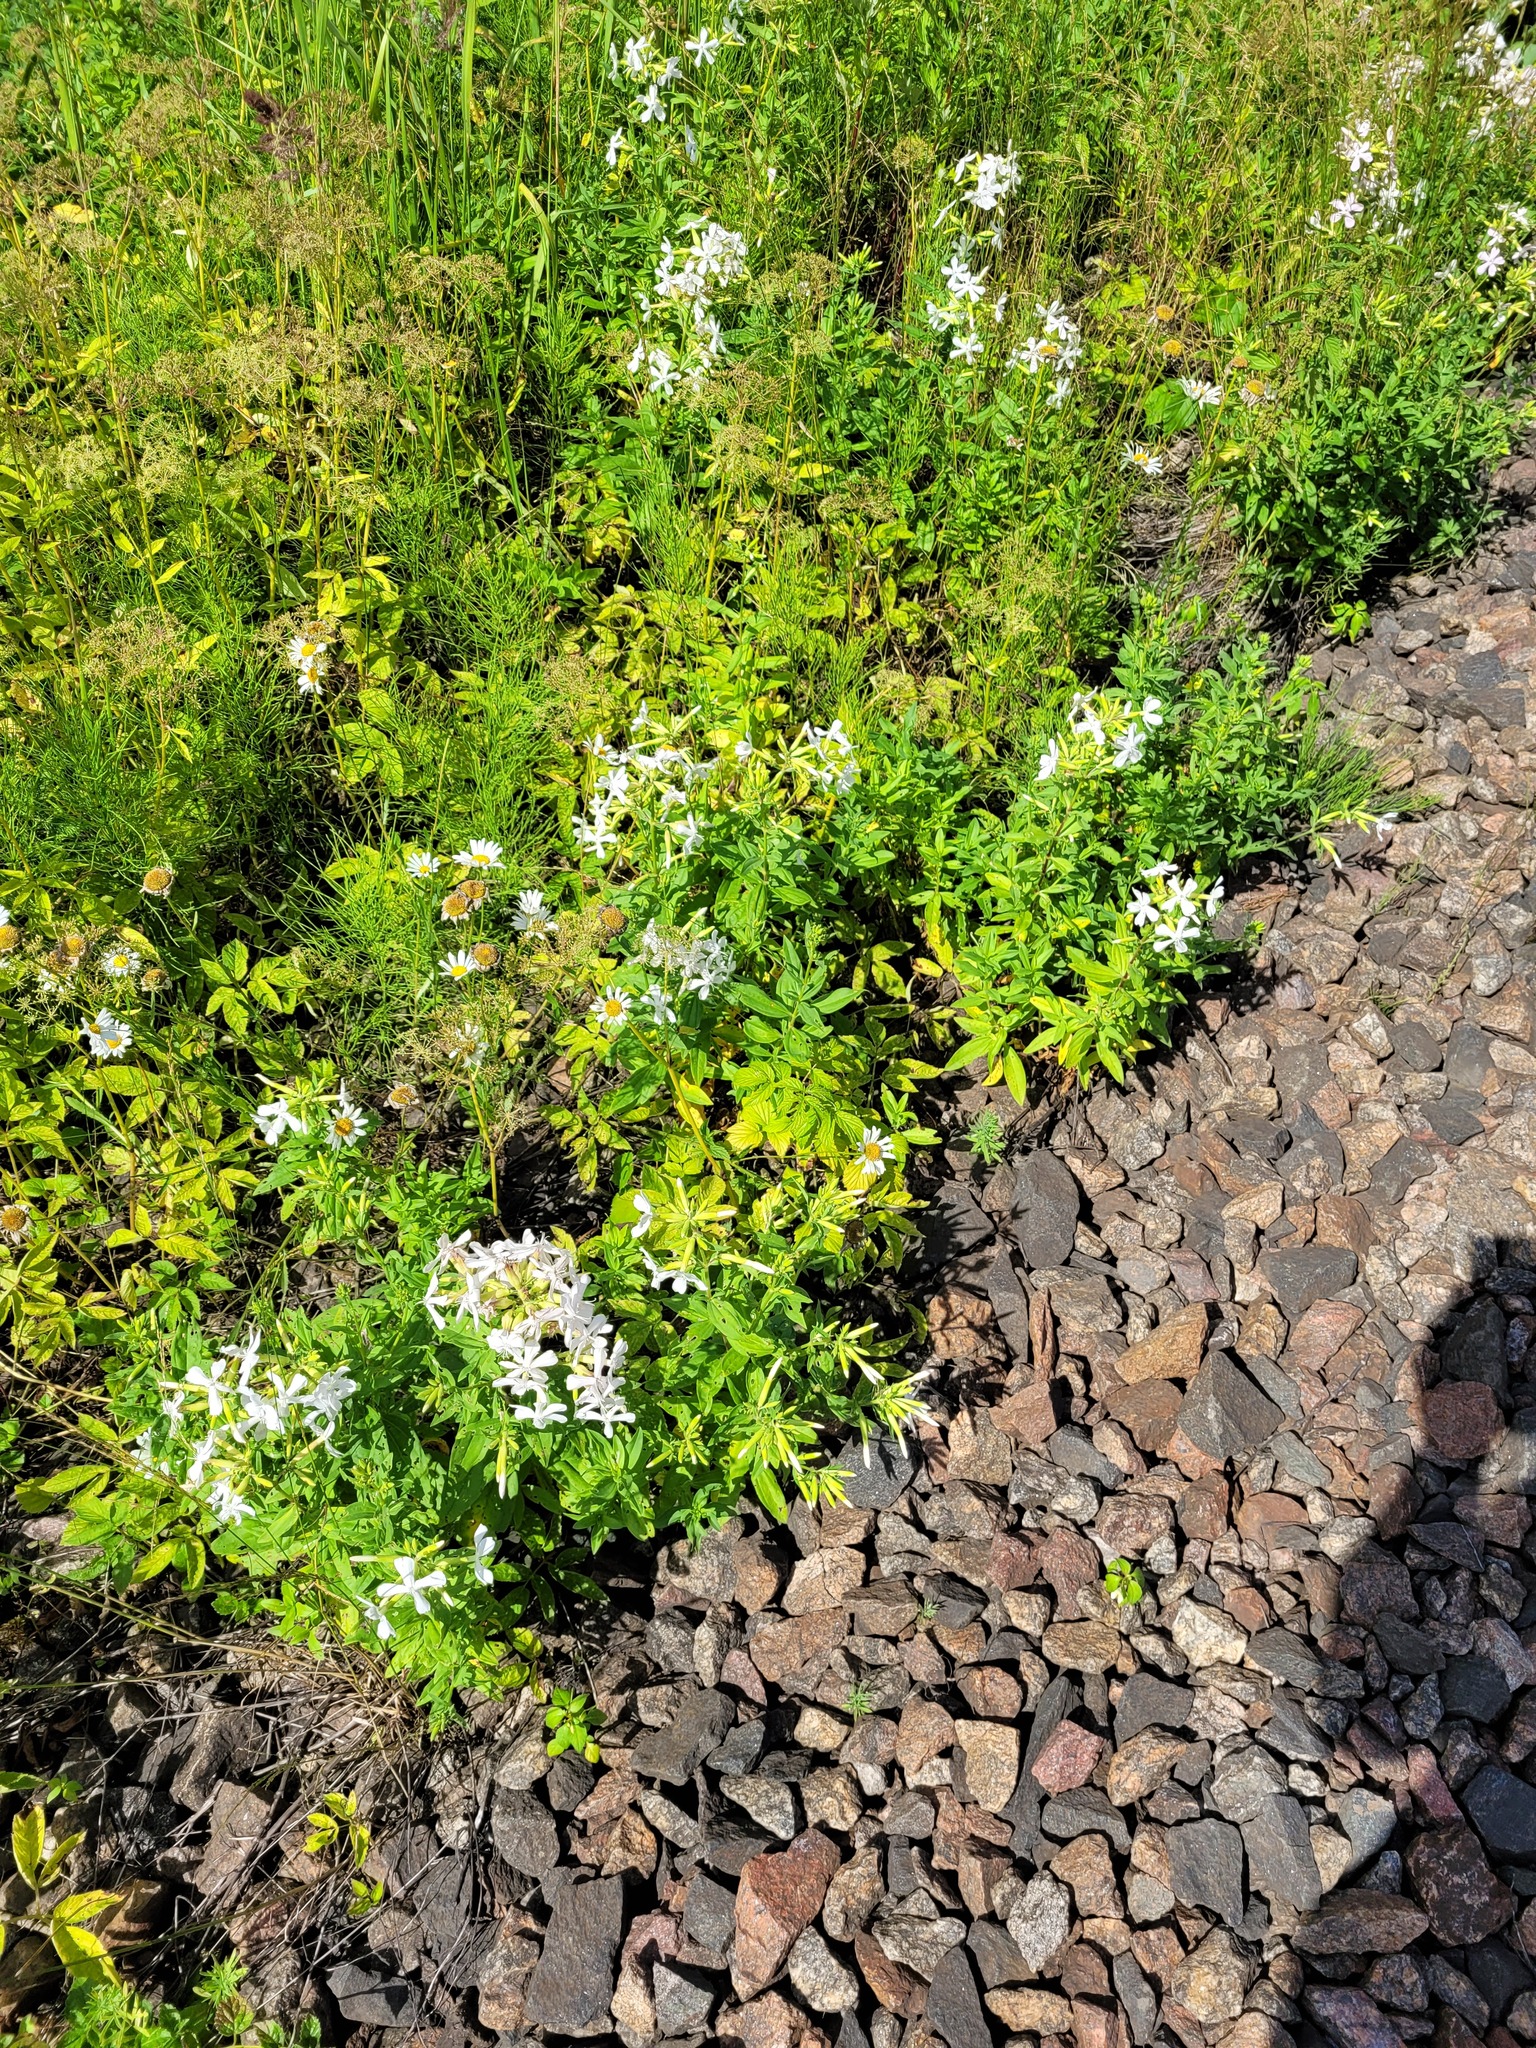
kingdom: Plantae
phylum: Tracheophyta
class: Magnoliopsida
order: Caryophyllales
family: Caryophyllaceae
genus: Saponaria
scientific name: Saponaria officinalis
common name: Soapwort
